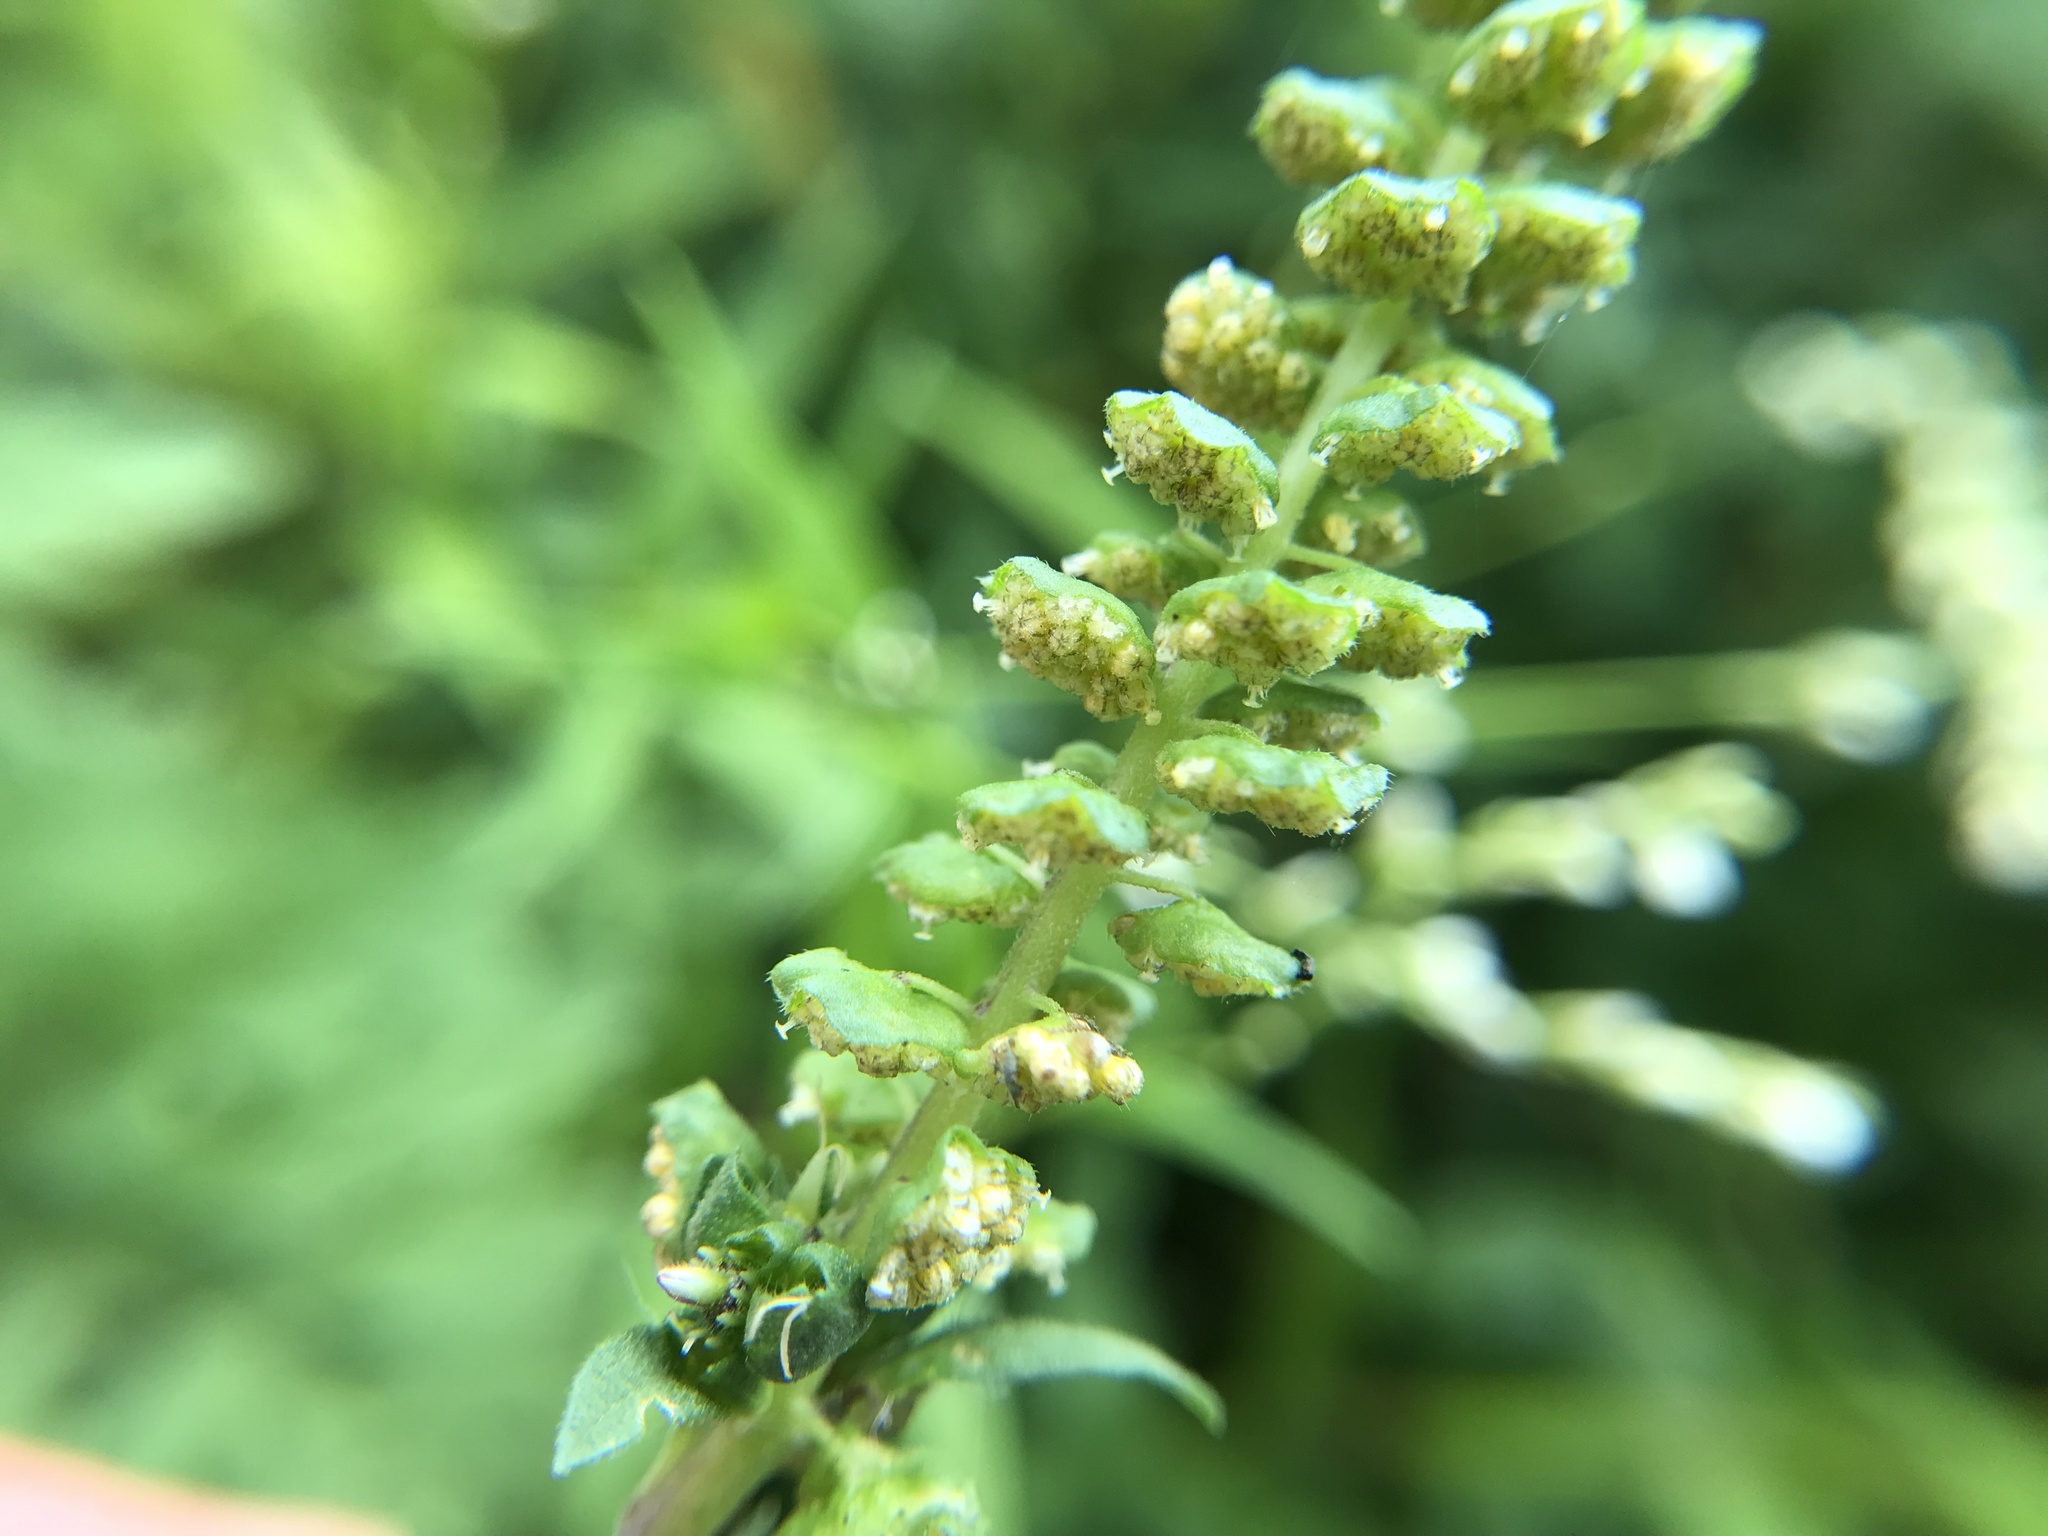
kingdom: Plantae
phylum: Tracheophyta
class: Magnoliopsida
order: Asterales
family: Asteraceae
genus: Ambrosia
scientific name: Ambrosia artemisiifolia
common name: Annual ragweed
